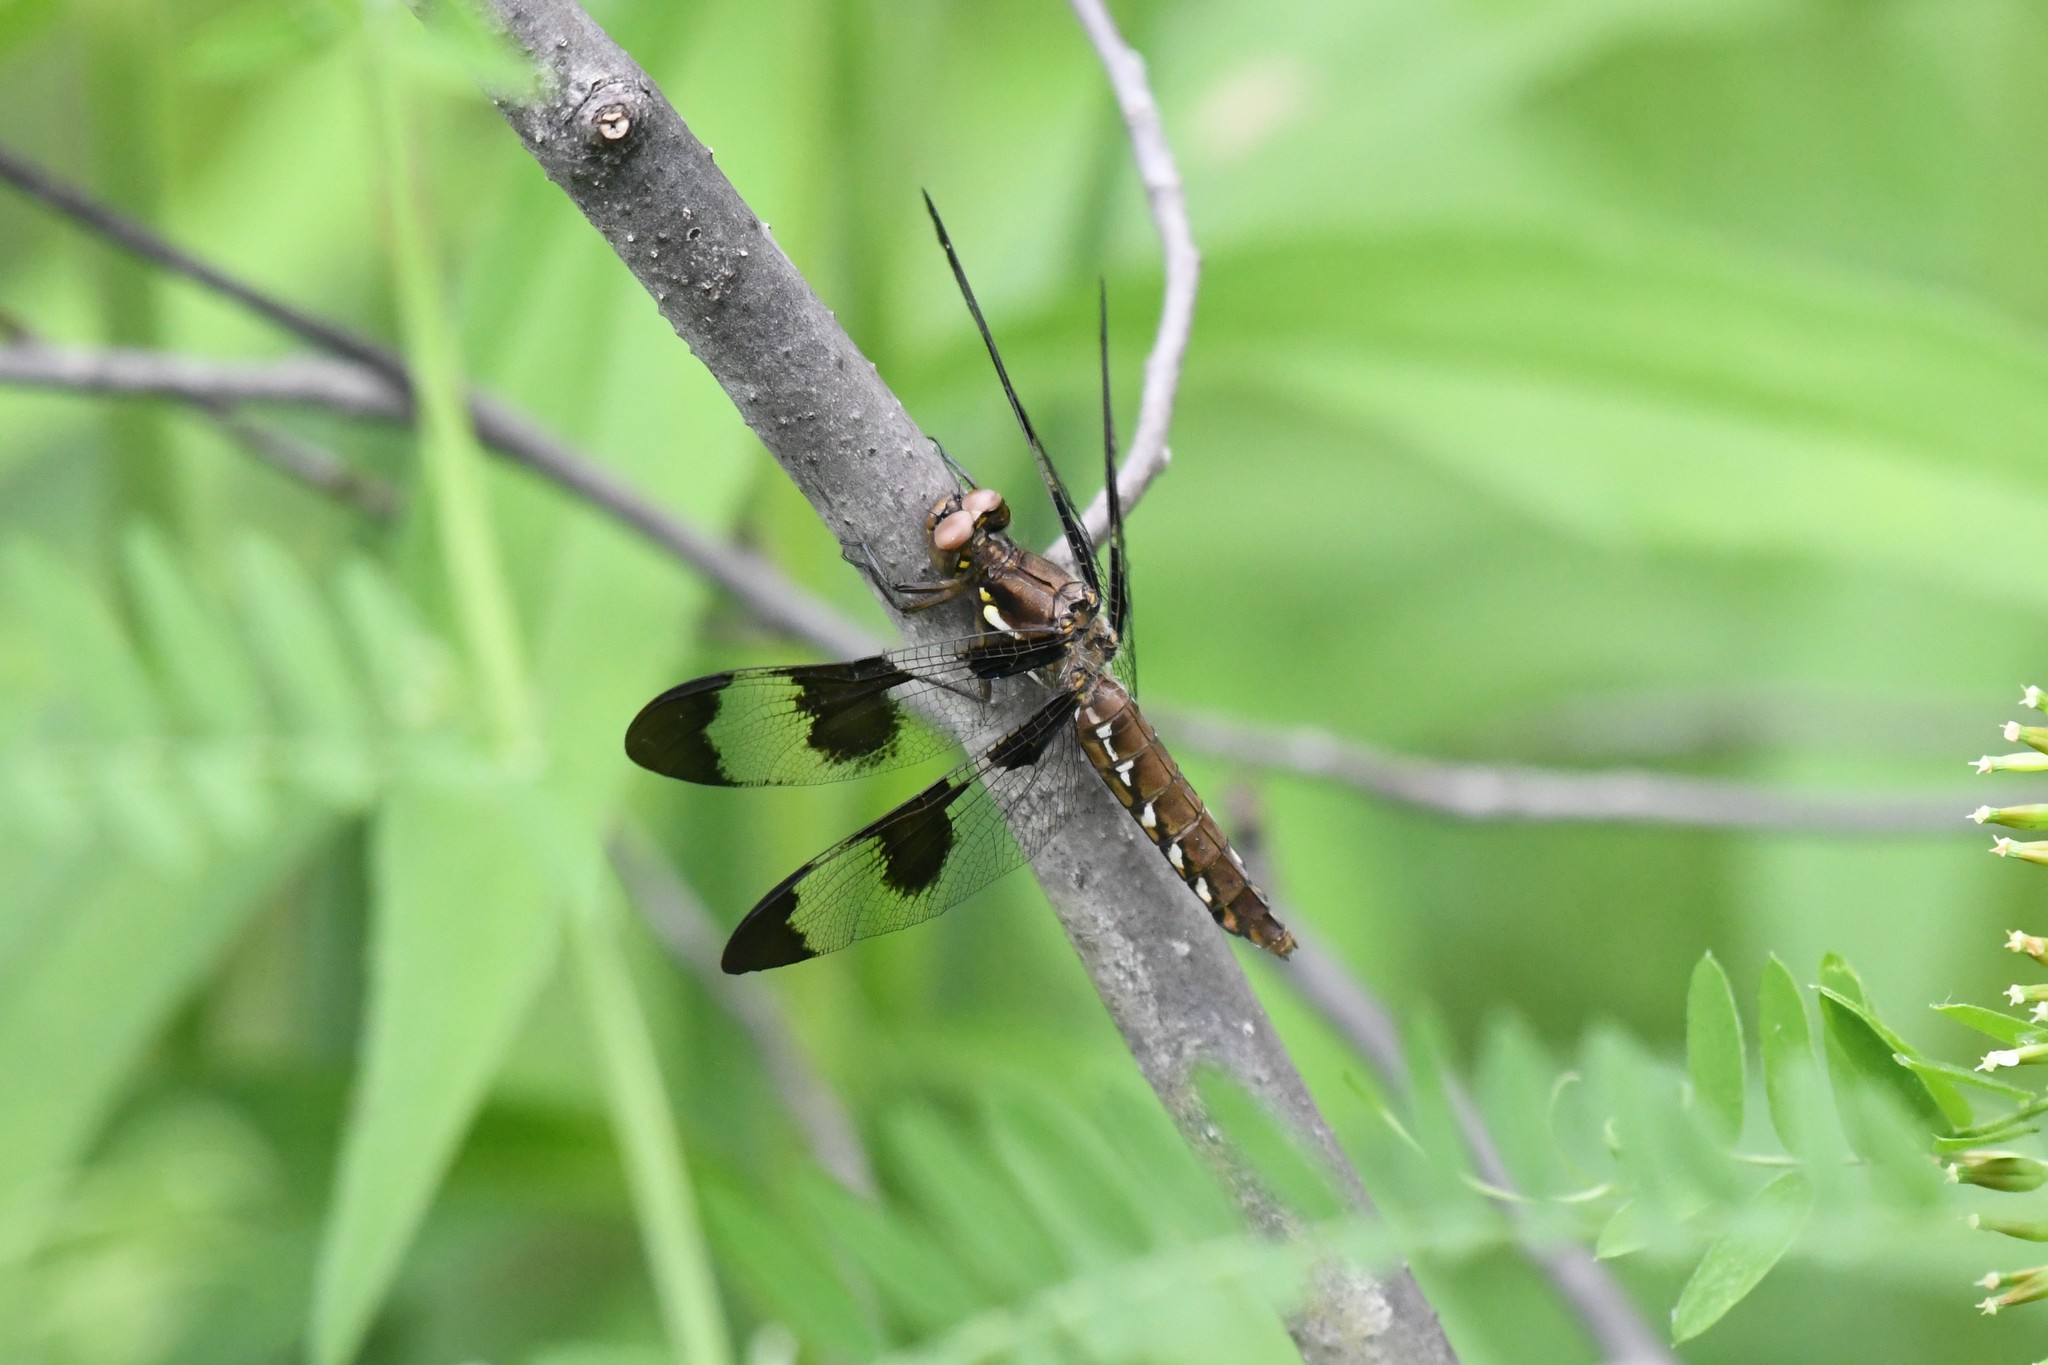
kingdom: Animalia
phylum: Arthropoda
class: Insecta
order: Odonata
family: Libellulidae
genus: Plathemis
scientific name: Plathemis lydia
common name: Common whitetail
